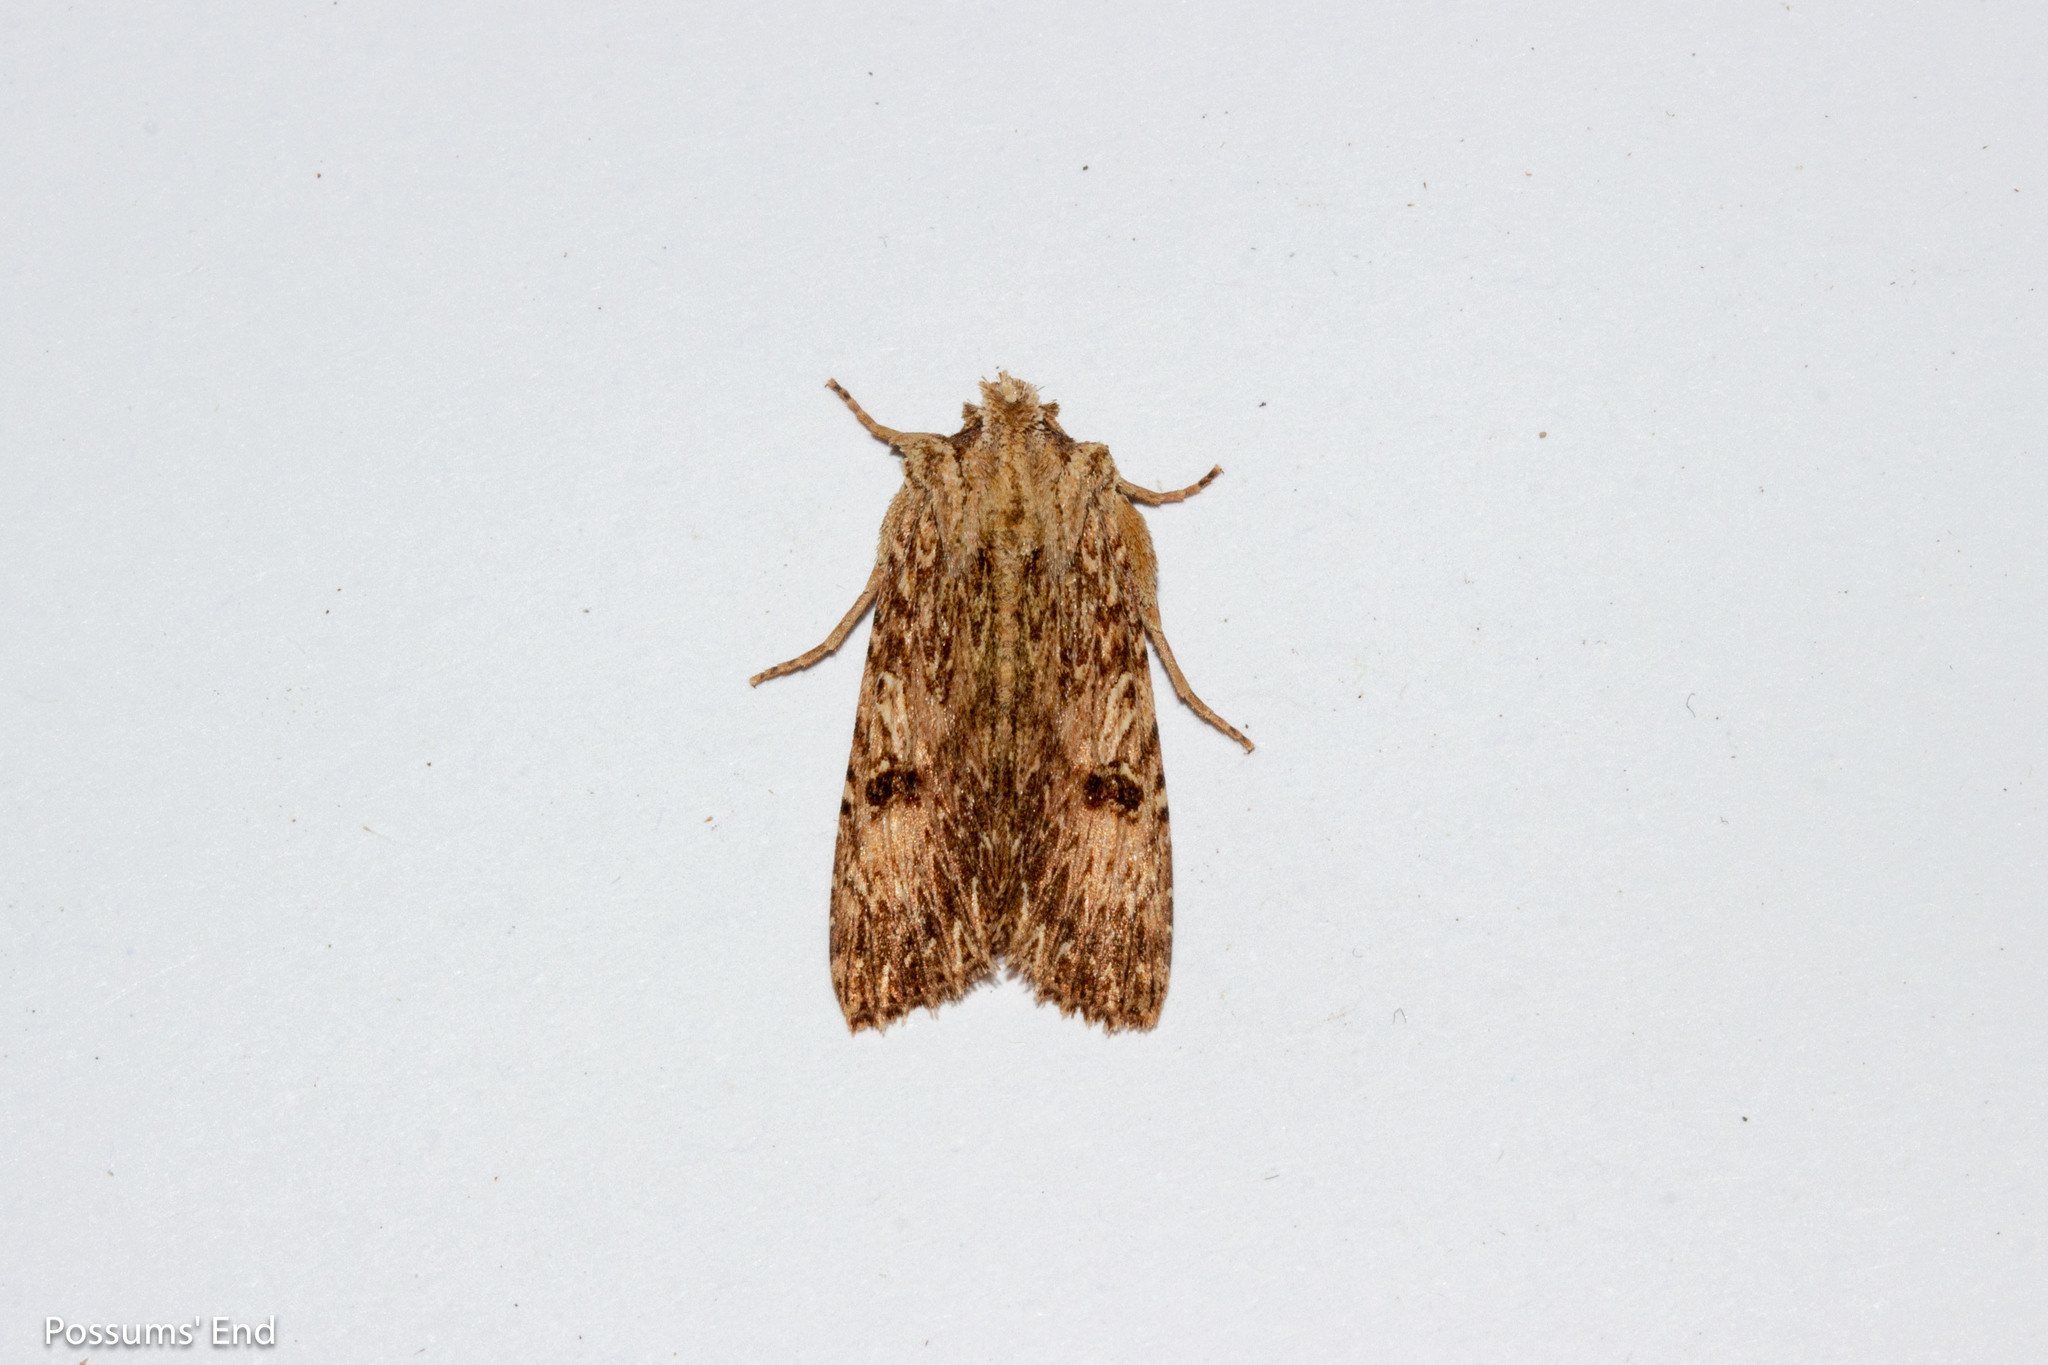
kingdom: Animalia
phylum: Arthropoda
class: Insecta
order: Lepidoptera
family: Noctuidae
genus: Meterana
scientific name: Meterana pansicolor
